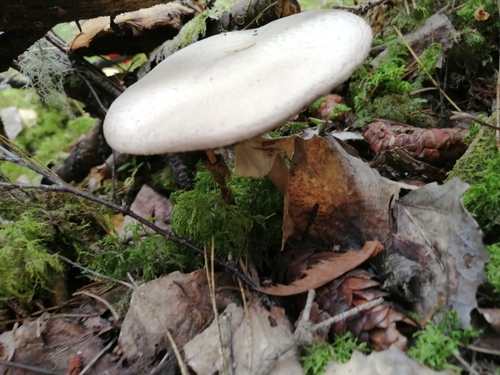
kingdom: Fungi
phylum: Basidiomycota
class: Agaricomycetes
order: Agaricales
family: Agaricaceae
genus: Agaricus
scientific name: Agaricus sylvicola
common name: Wood mushroom
